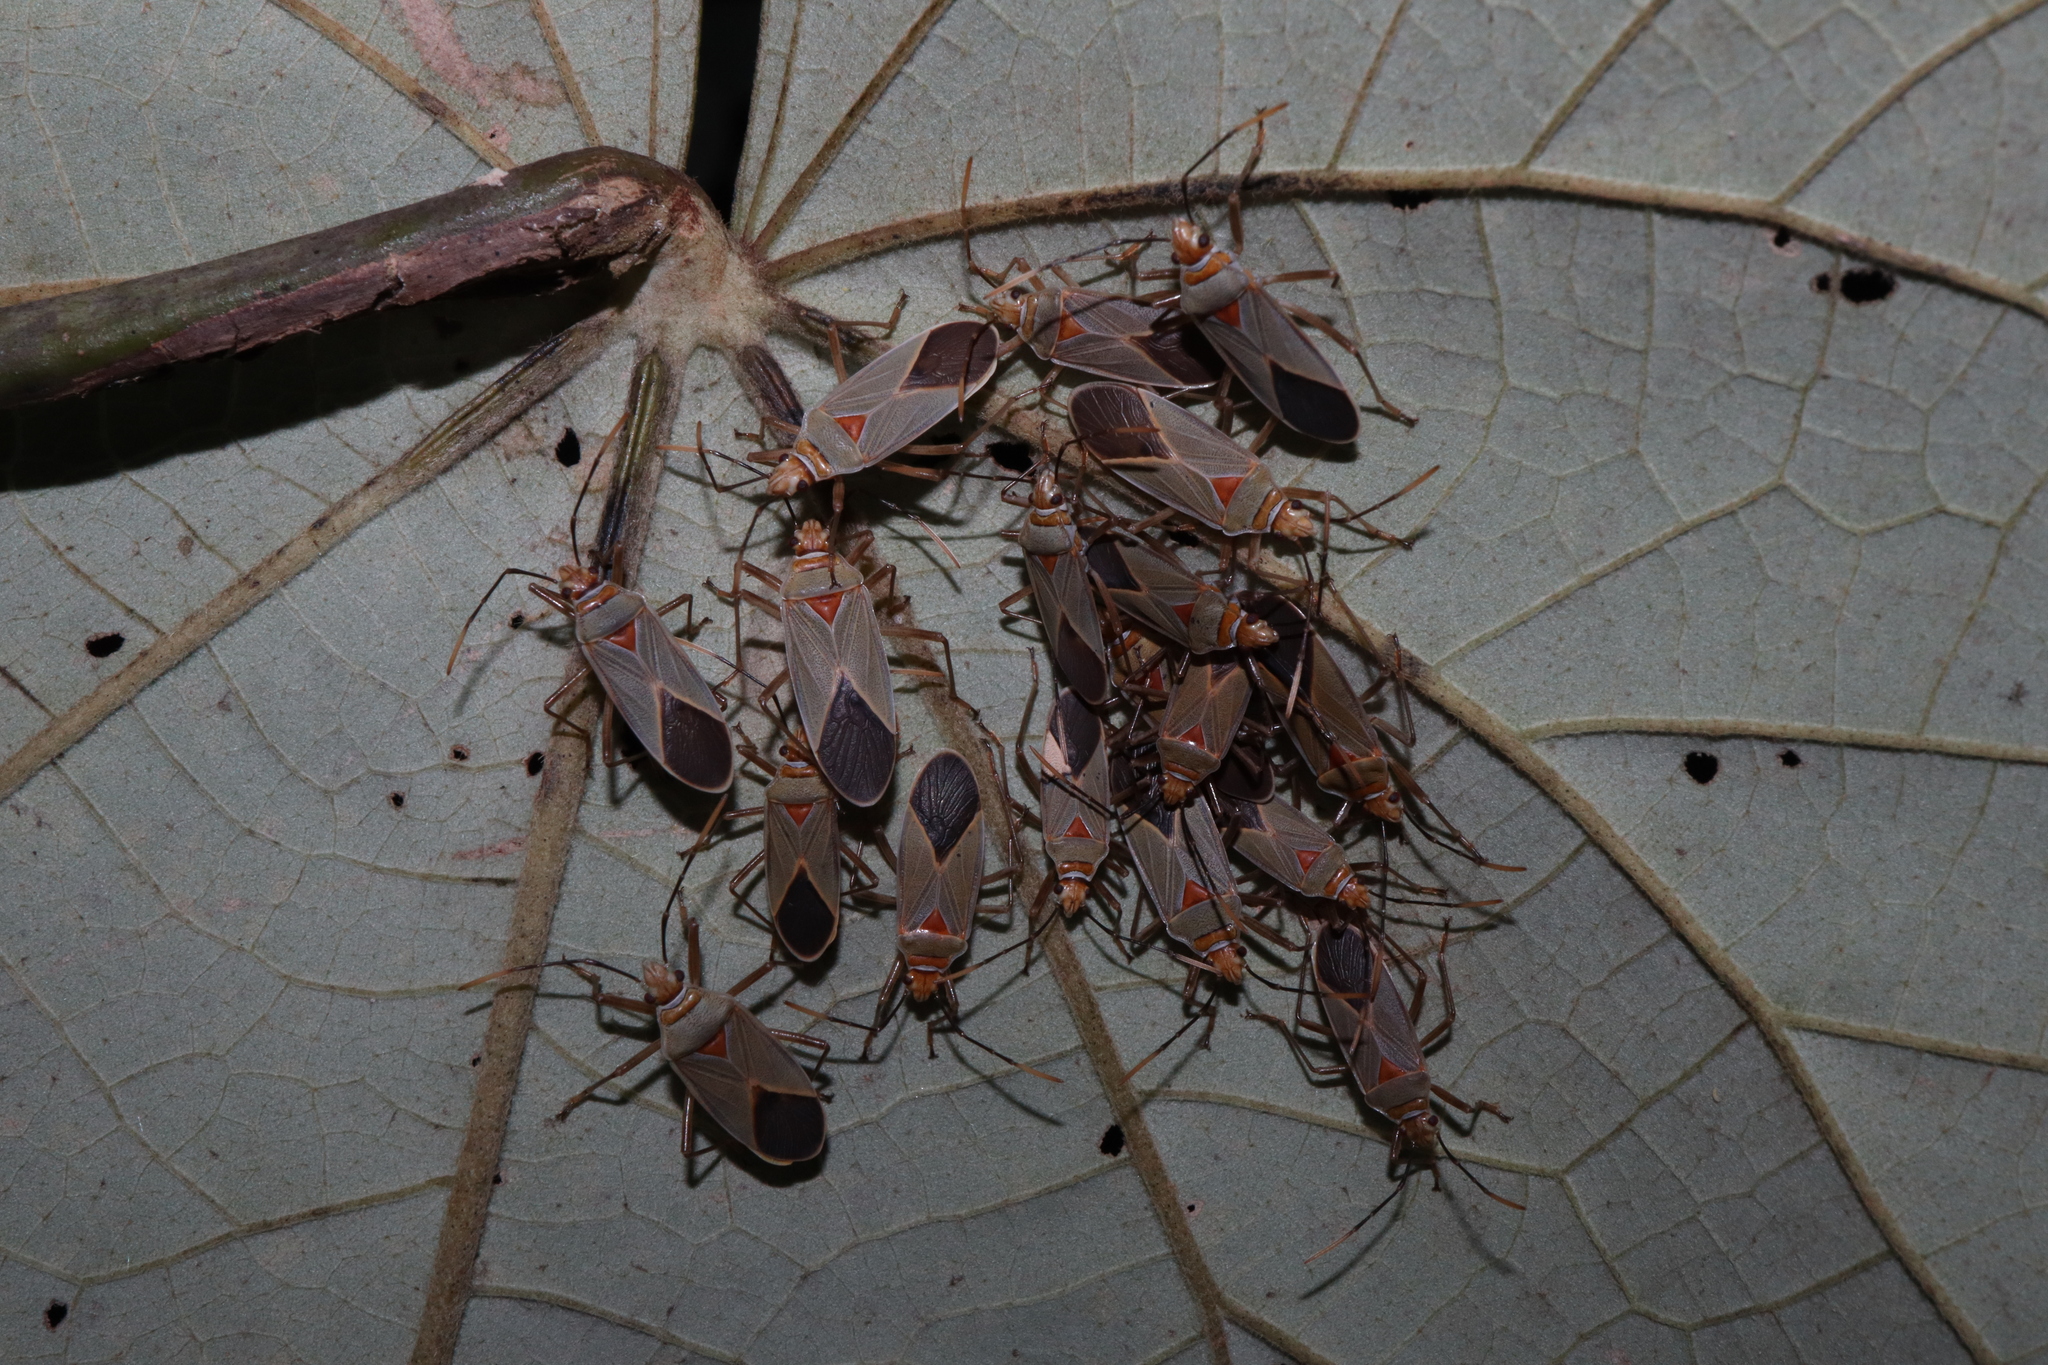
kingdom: Animalia
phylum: Arthropoda
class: Insecta
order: Hemiptera
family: Pyrrhocoridae
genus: Dysdercus
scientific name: Dysdercus argillaceus
